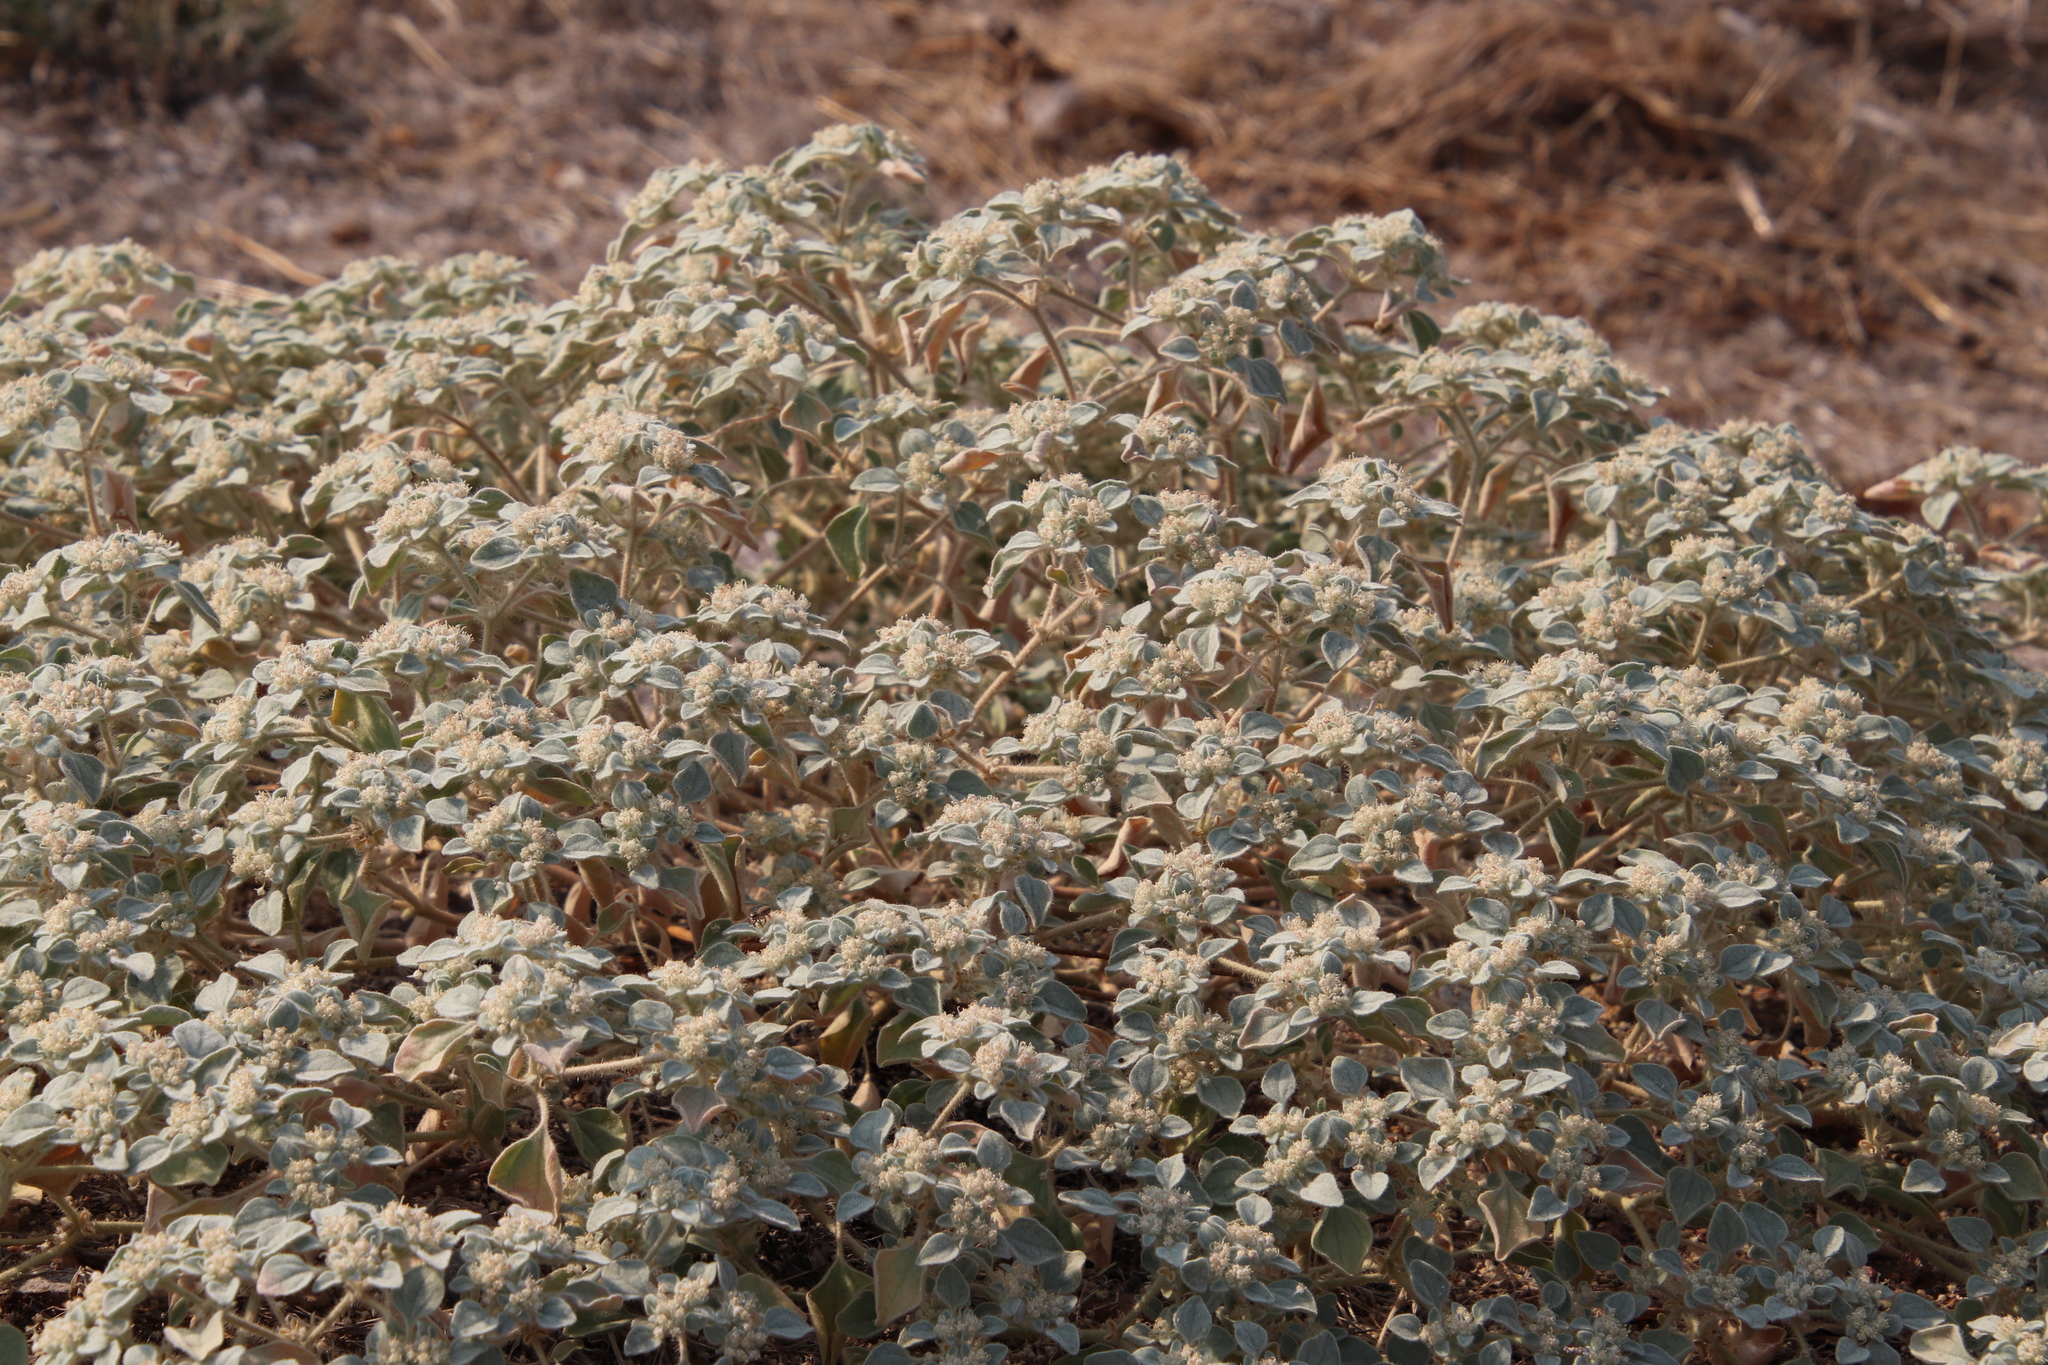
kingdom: Plantae
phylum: Tracheophyta
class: Magnoliopsida
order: Malpighiales
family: Euphorbiaceae
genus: Croton
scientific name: Croton setiger
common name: Dove weed
